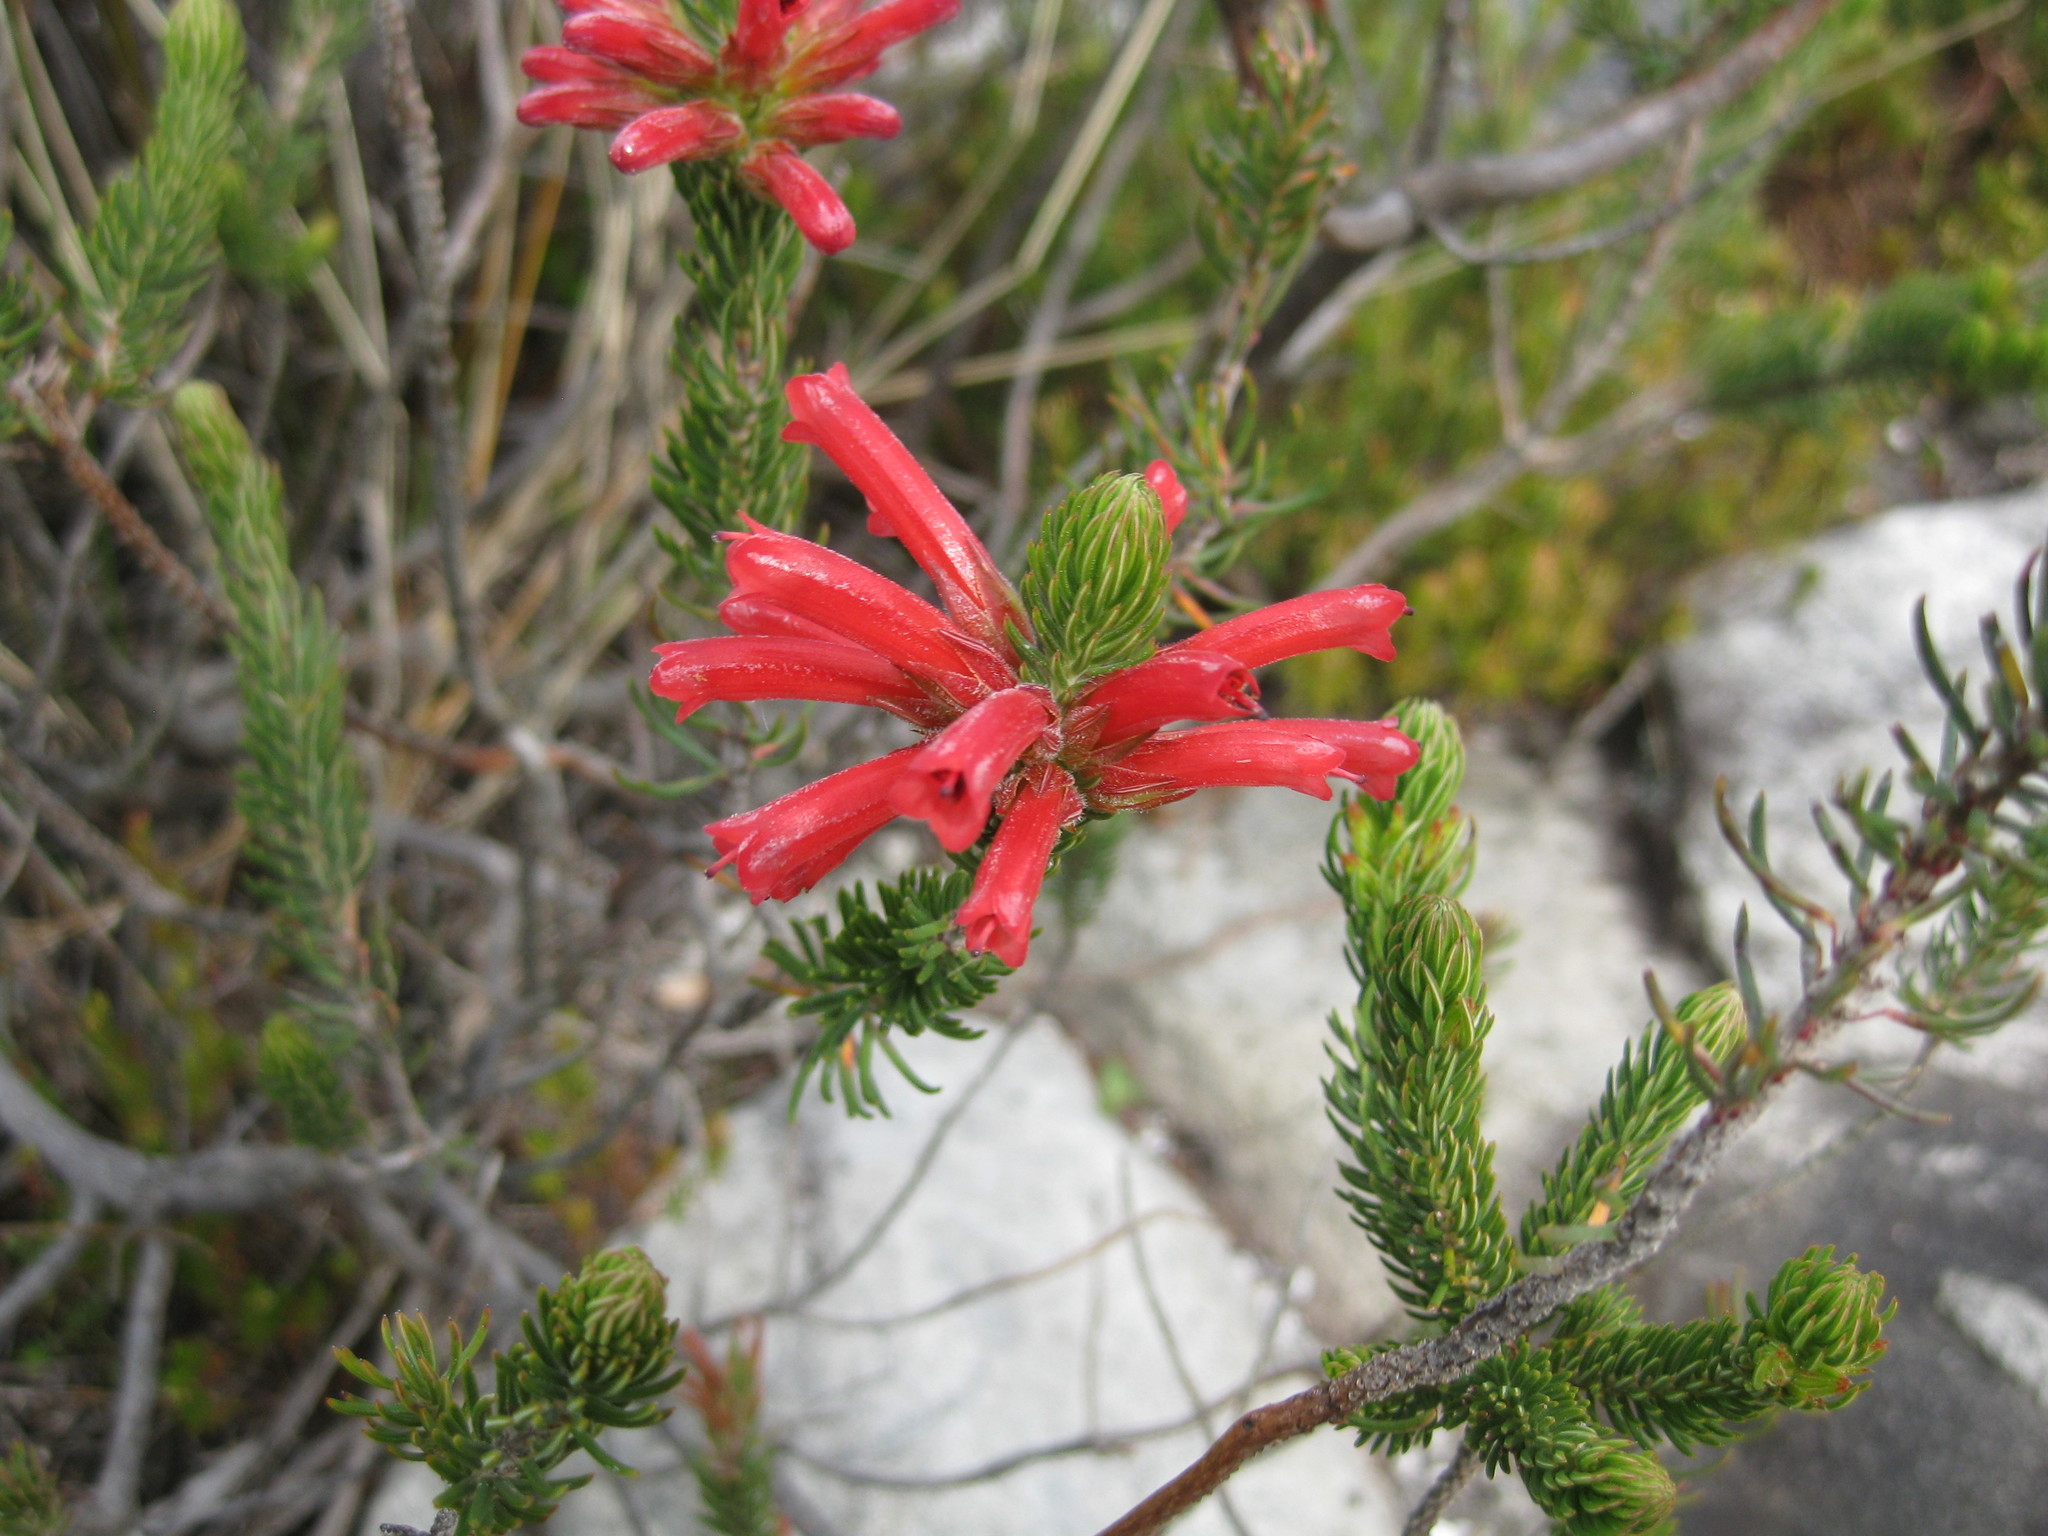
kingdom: Plantae
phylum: Tracheophyta
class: Magnoliopsida
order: Ericales
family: Ericaceae
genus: Erica
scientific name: Erica abietina
